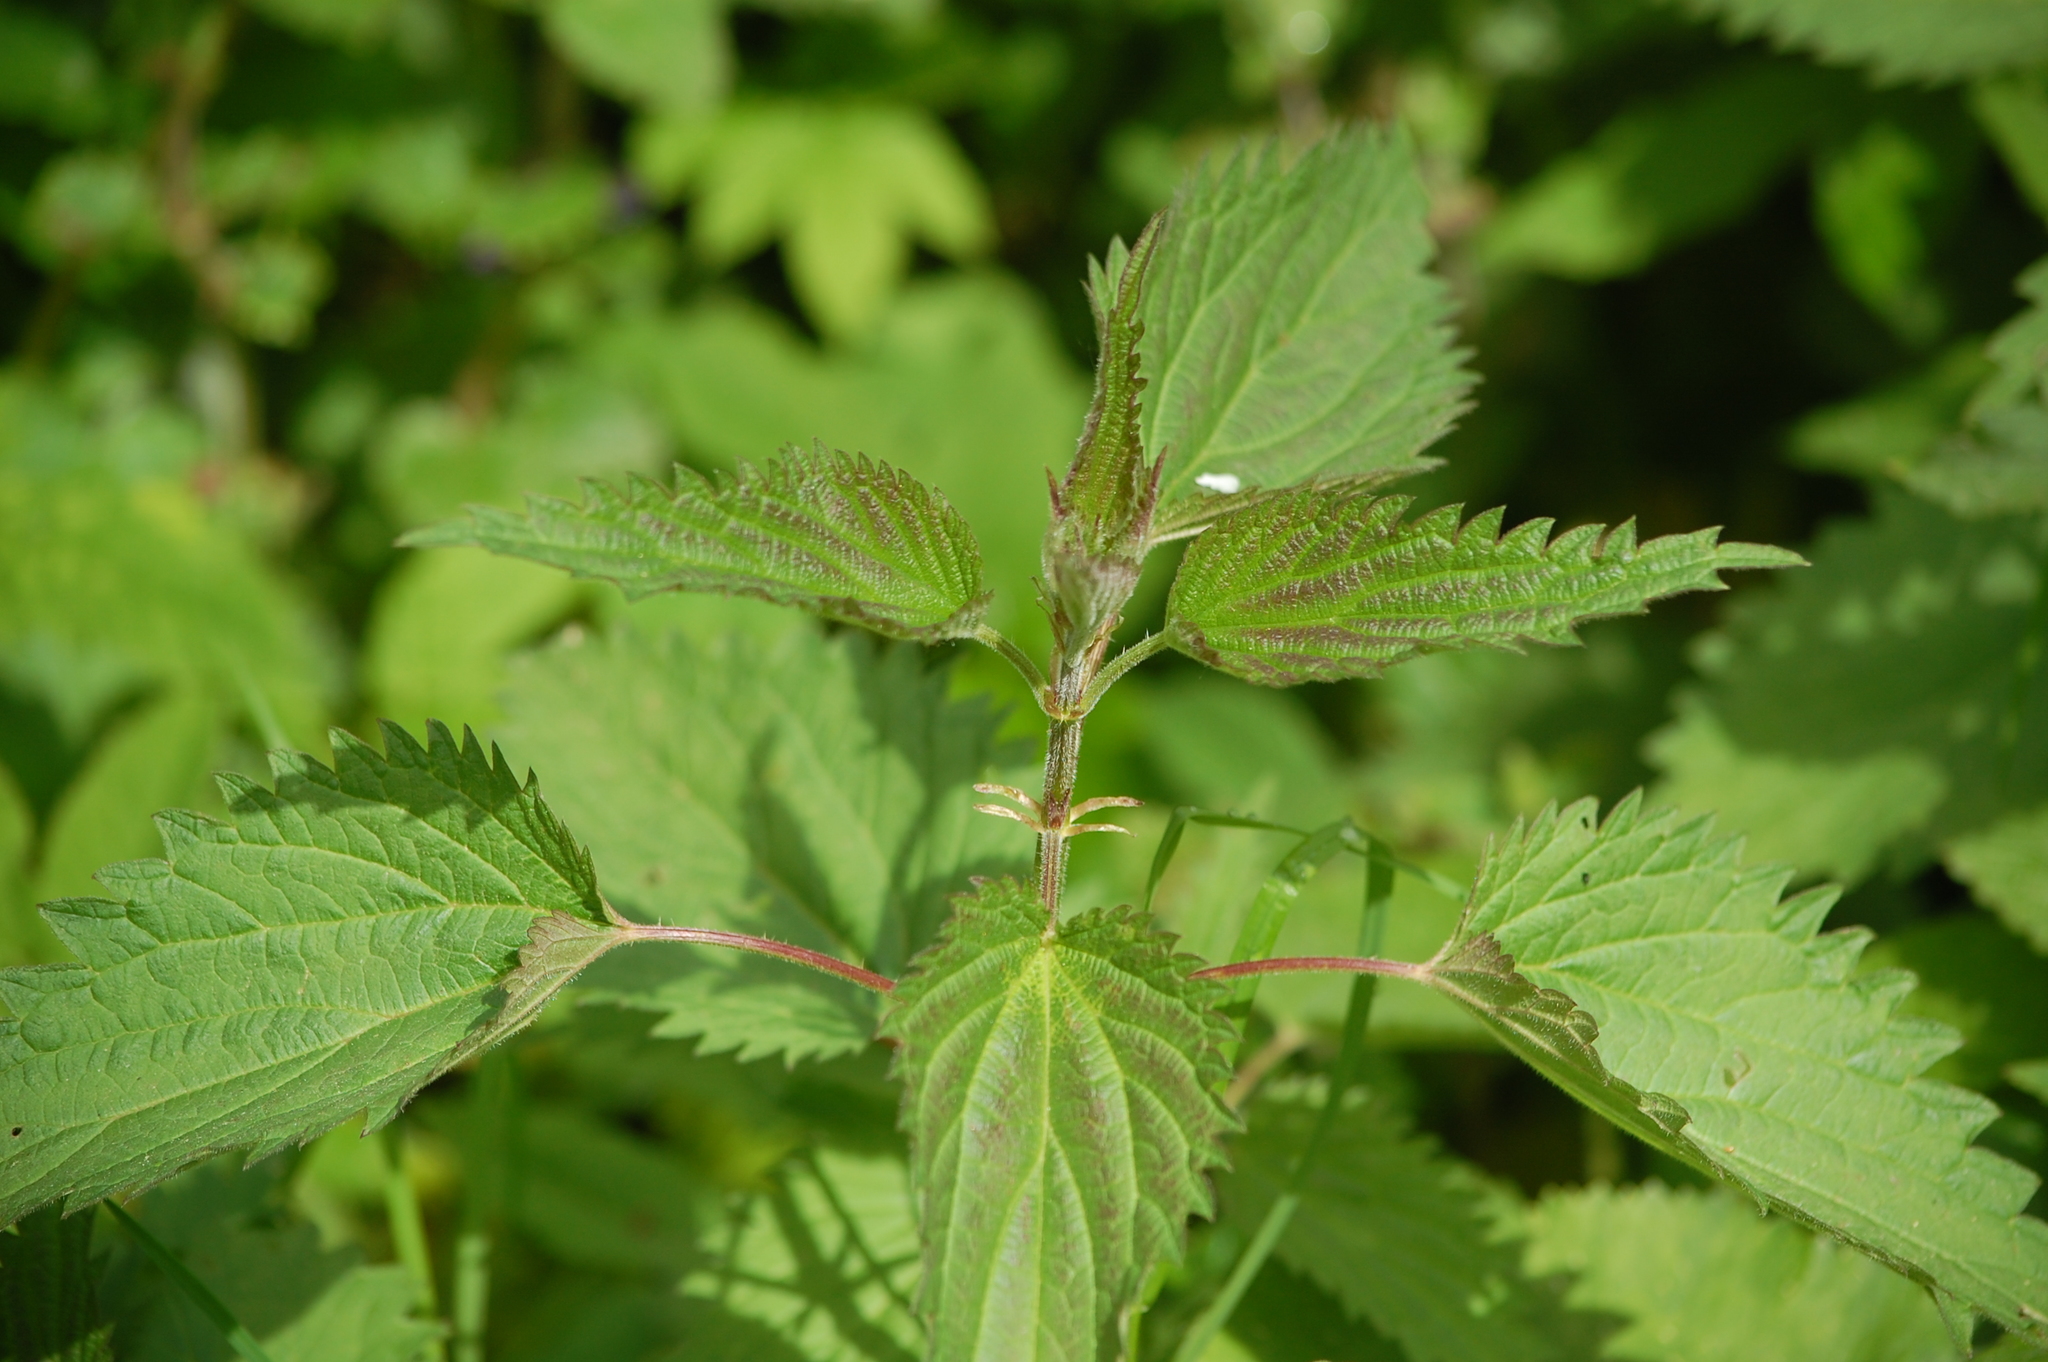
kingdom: Plantae
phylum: Tracheophyta
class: Magnoliopsida
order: Rosales
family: Urticaceae
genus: Urtica
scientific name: Urtica dioica
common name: Common nettle
